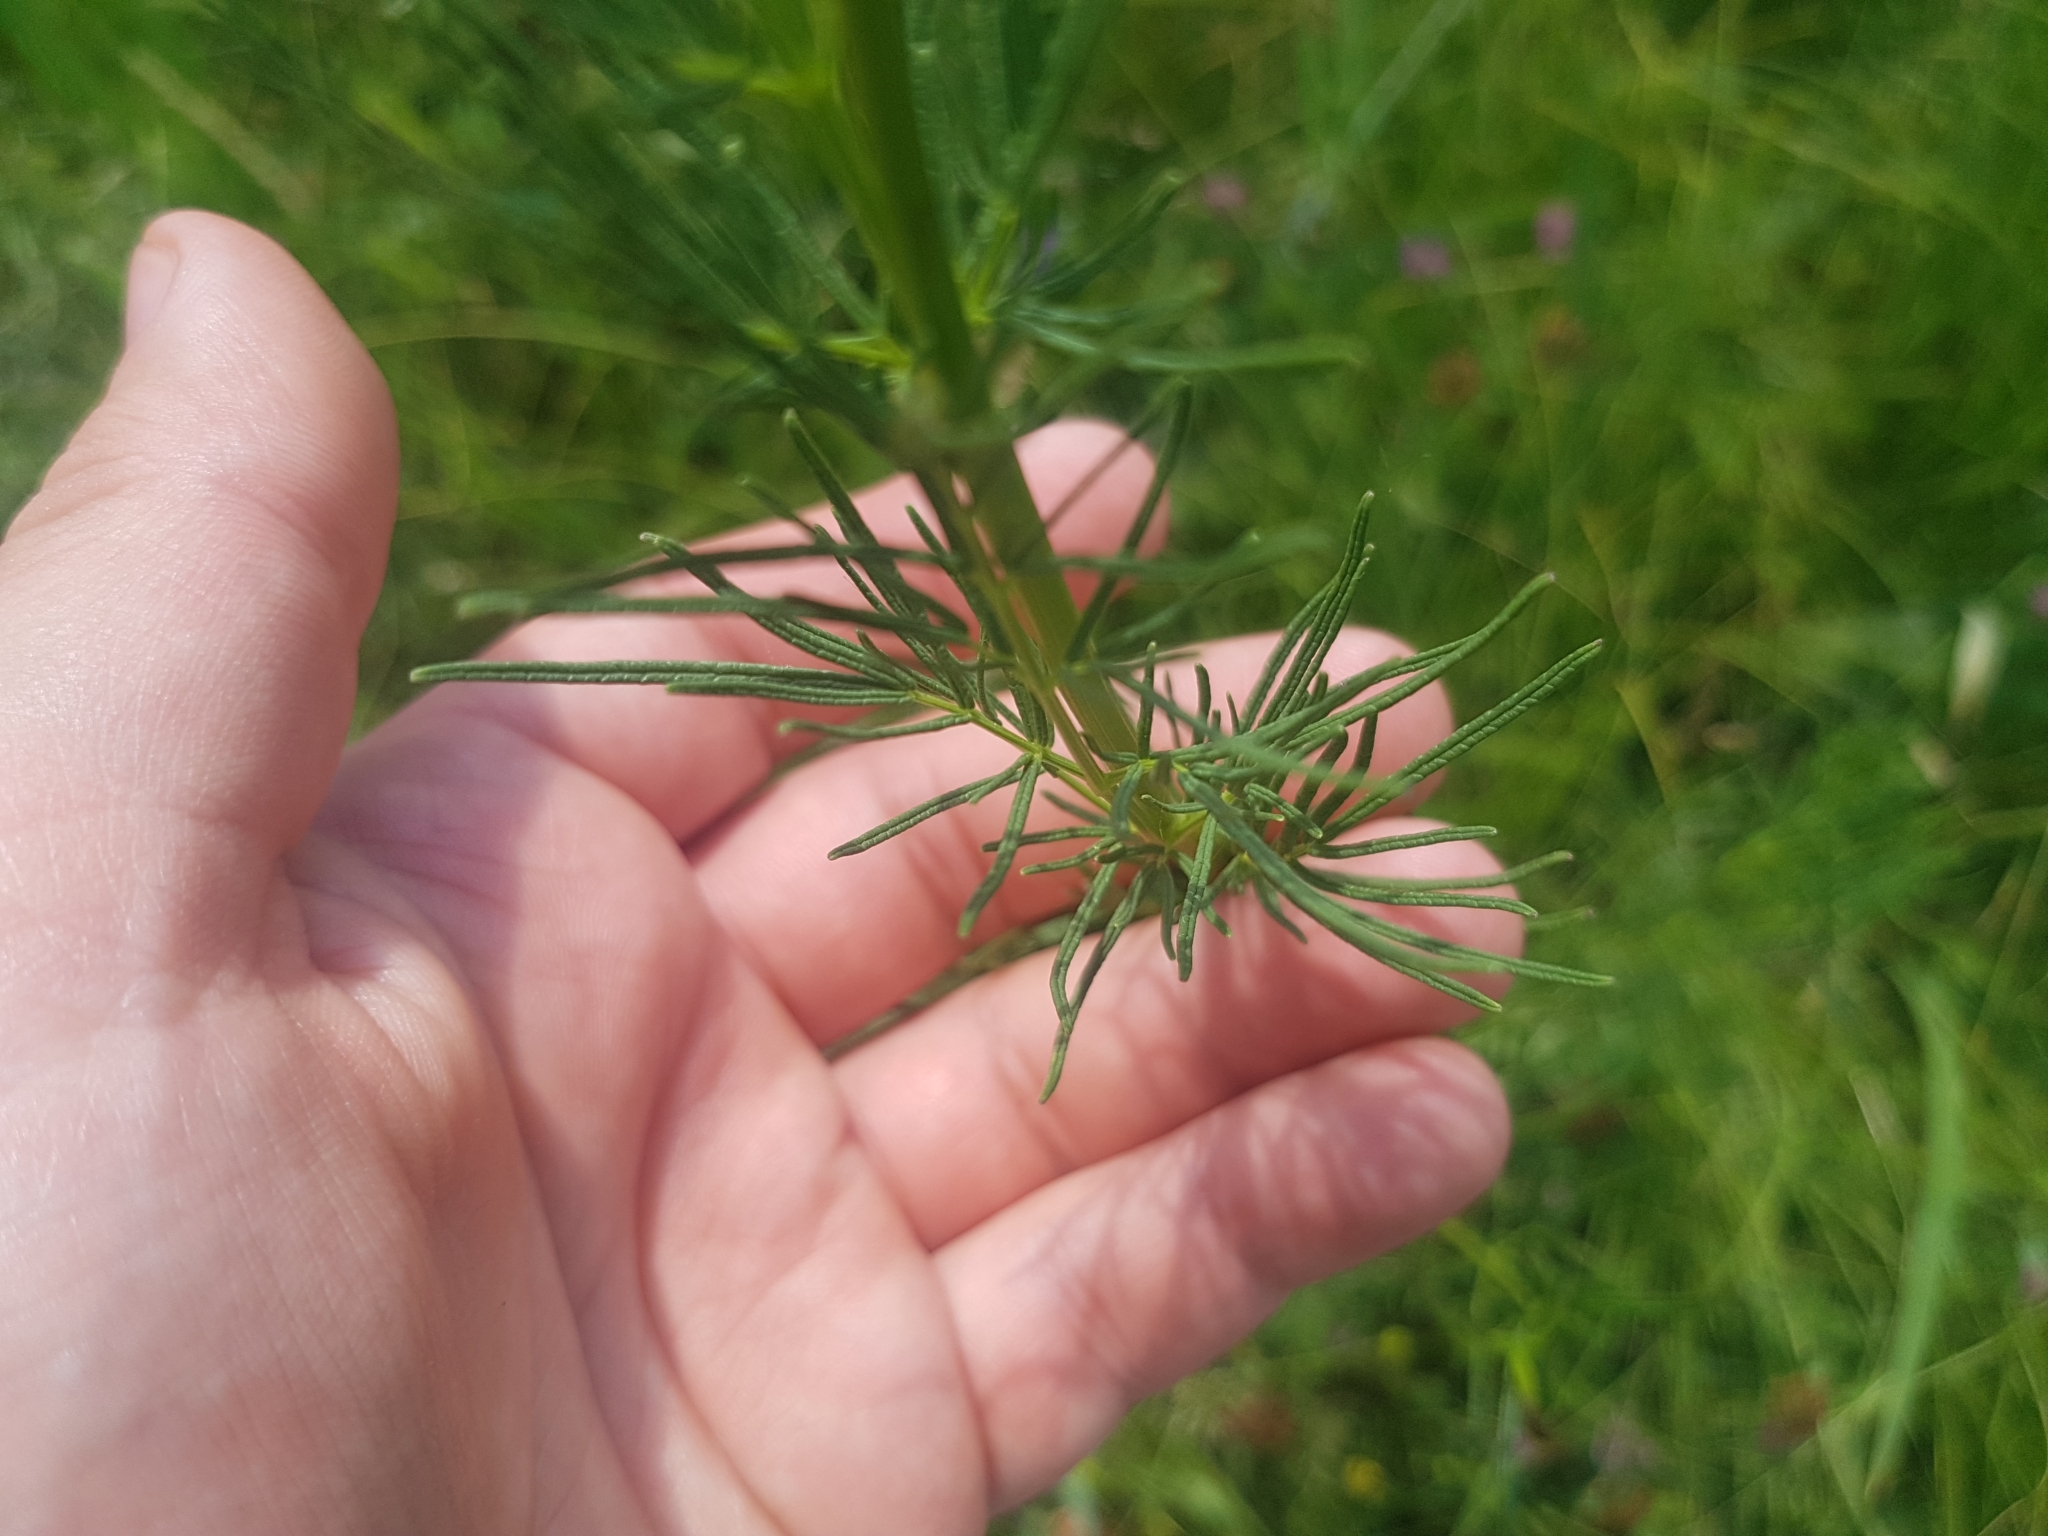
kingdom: Plantae
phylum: Tracheophyta
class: Magnoliopsida
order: Ranunculales
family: Ranunculaceae
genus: Thalictrum
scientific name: Thalictrum lucidum
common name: Shining meadow-rue
